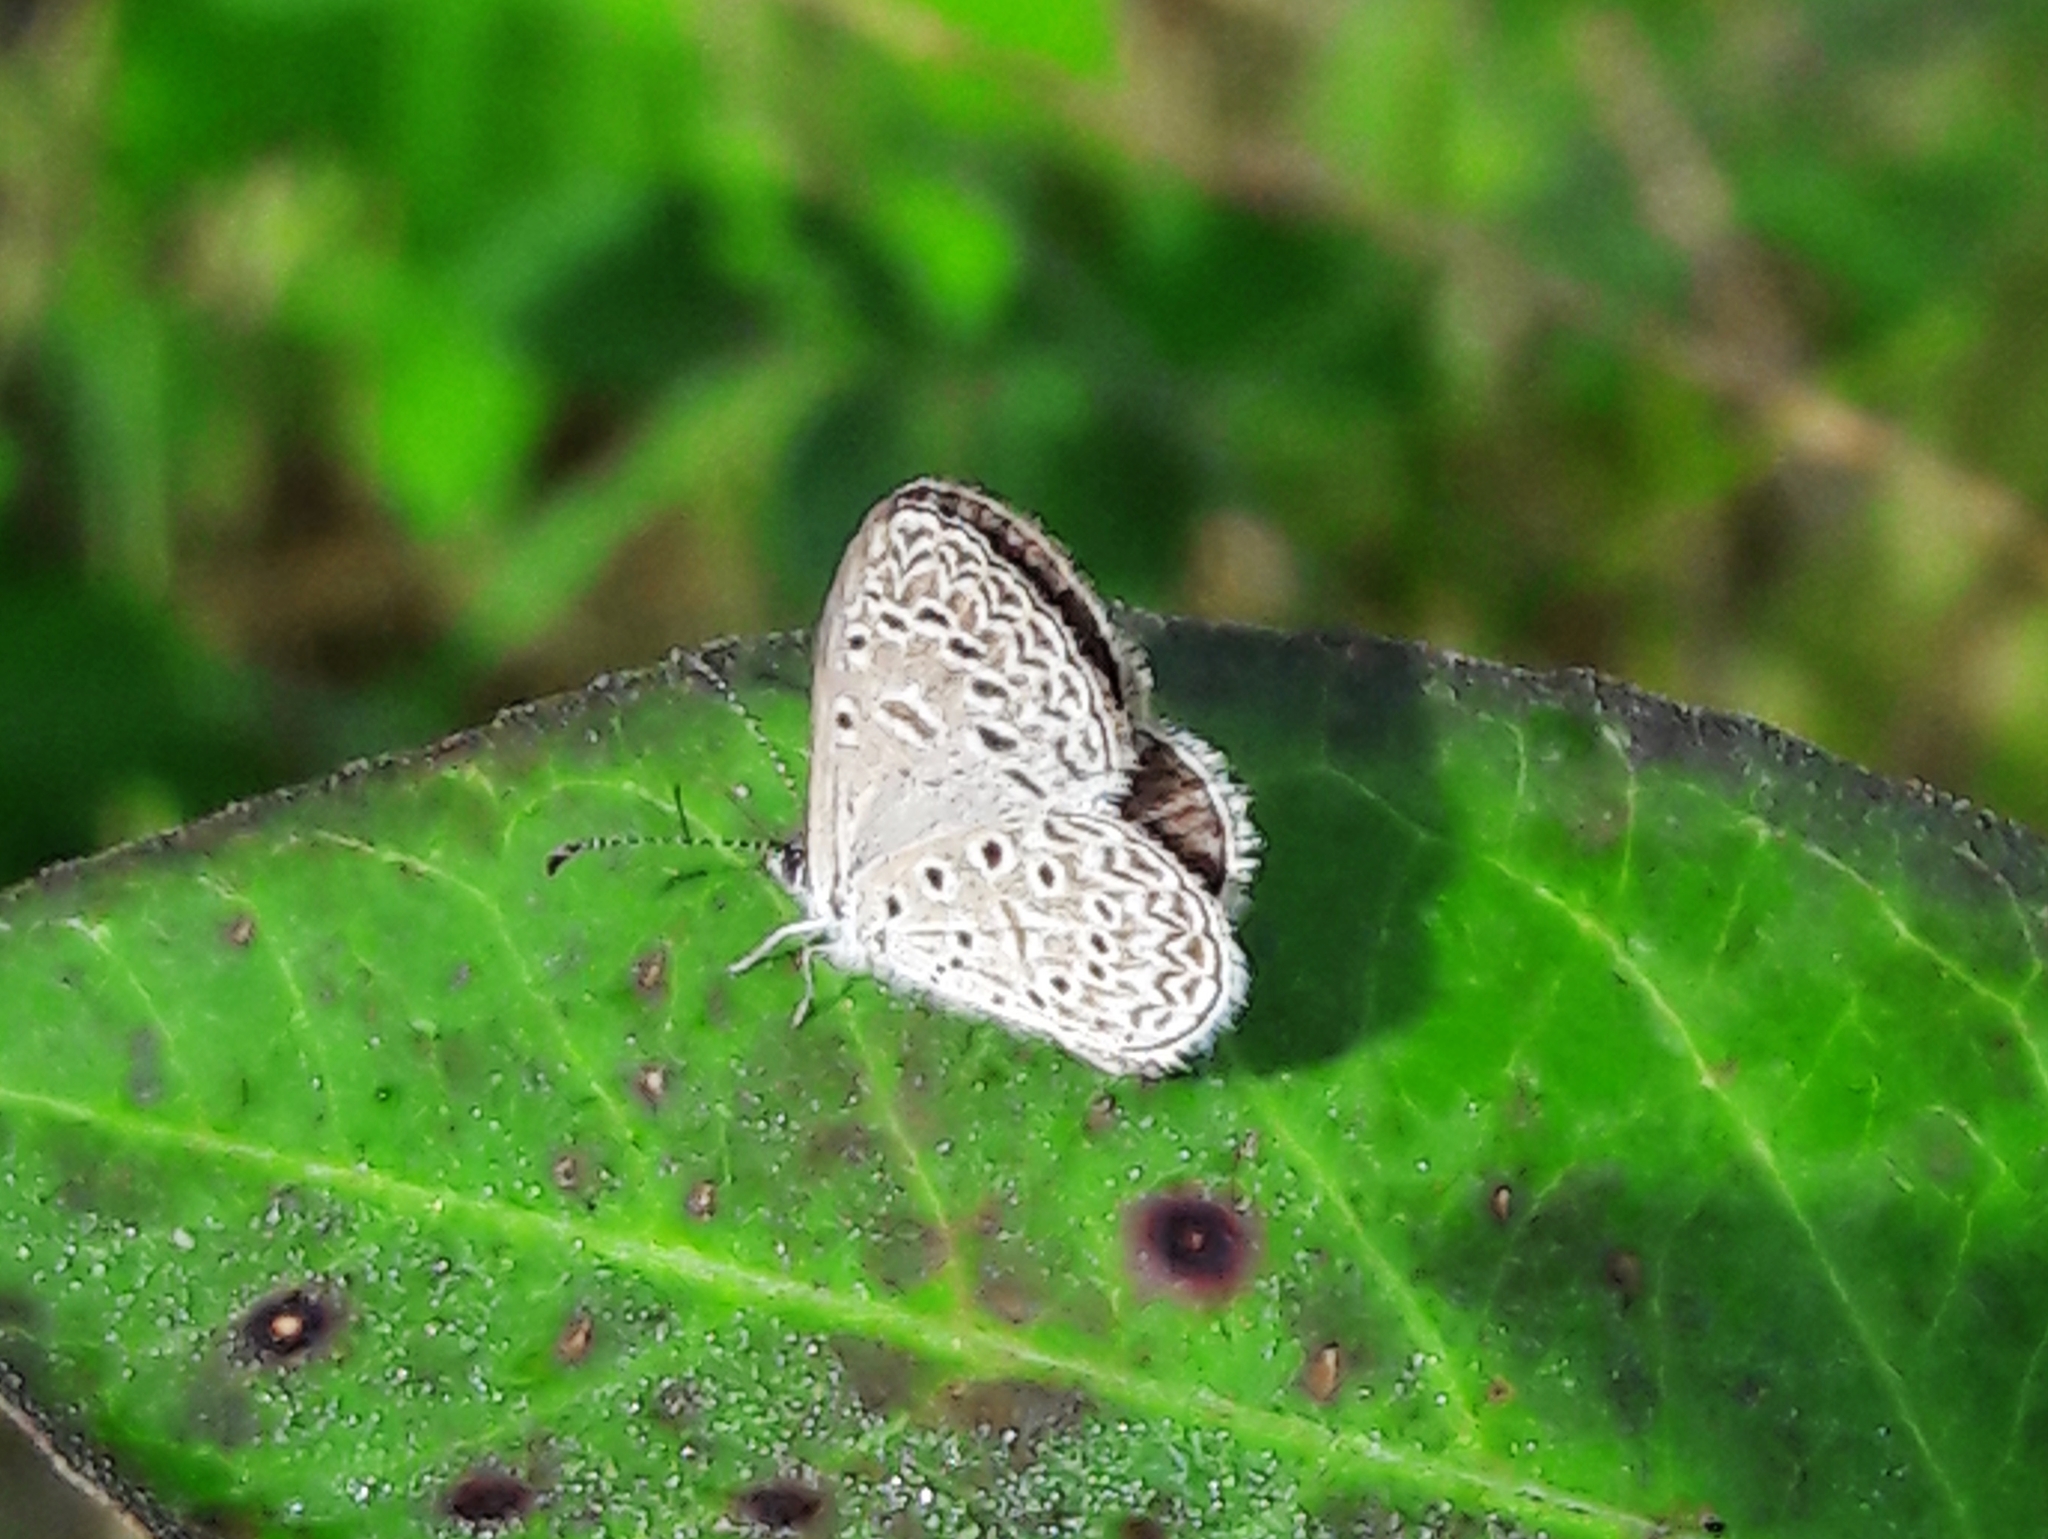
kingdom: Animalia
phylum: Arthropoda
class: Insecta
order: Lepidoptera
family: Lycaenidae
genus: Lycaena
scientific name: Lycaena cyna
